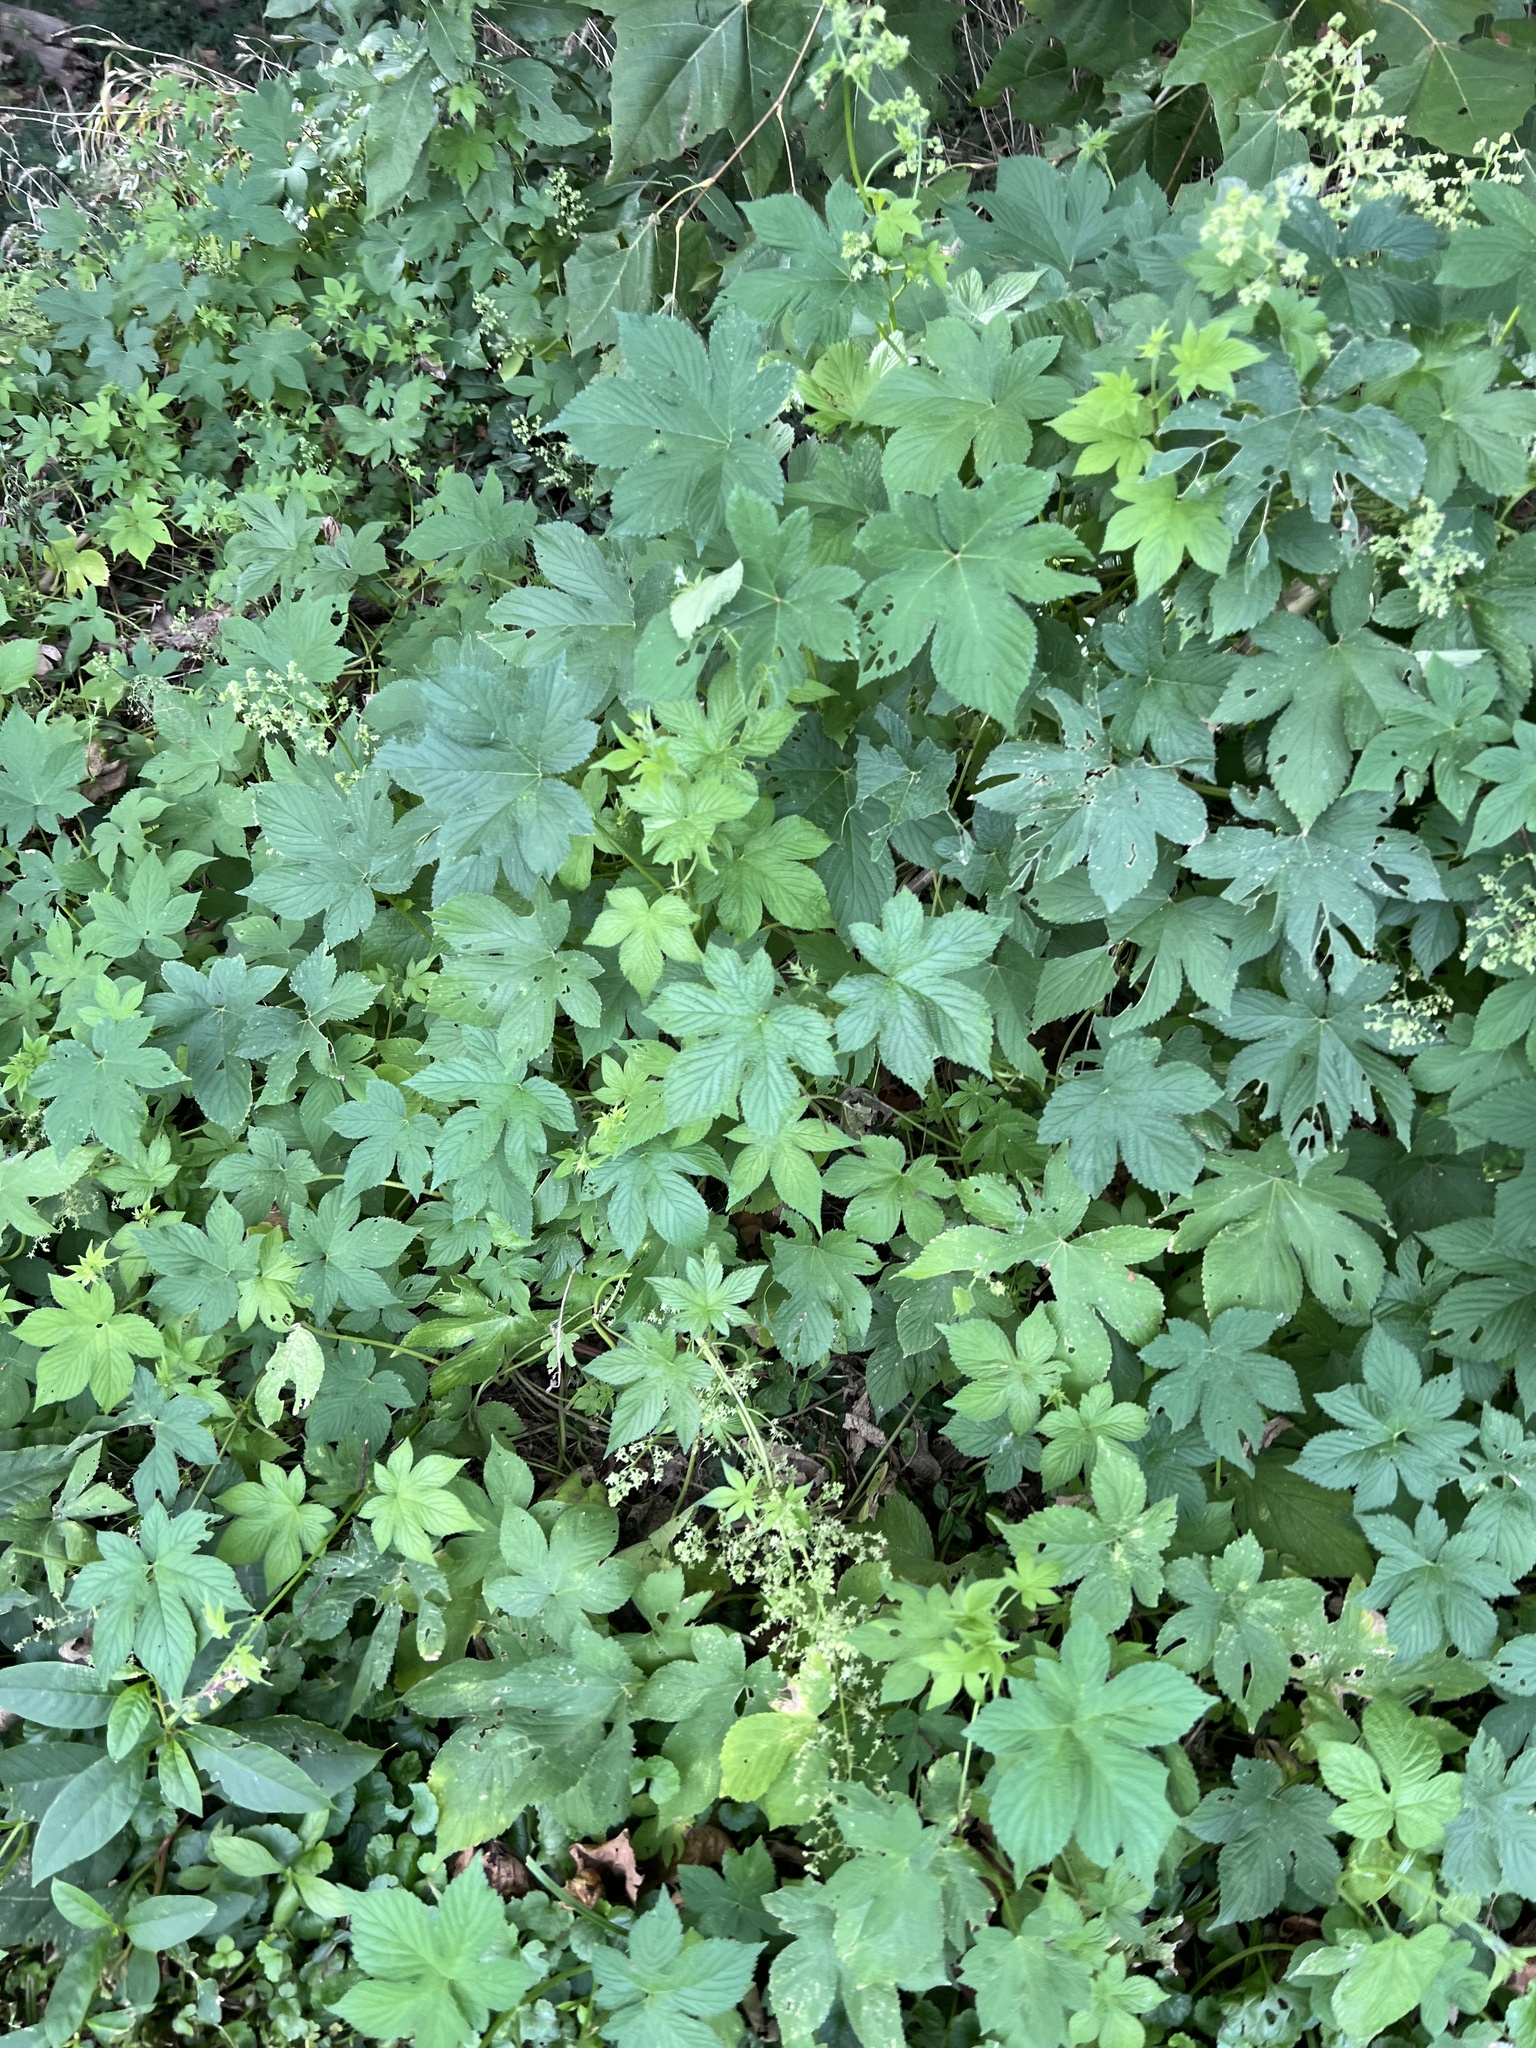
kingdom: Plantae
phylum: Tracheophyta
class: Magnoliopsida
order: Rosales
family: Cannabaceae
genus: Humulus
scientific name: Humulus scandens
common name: Japanese hop
